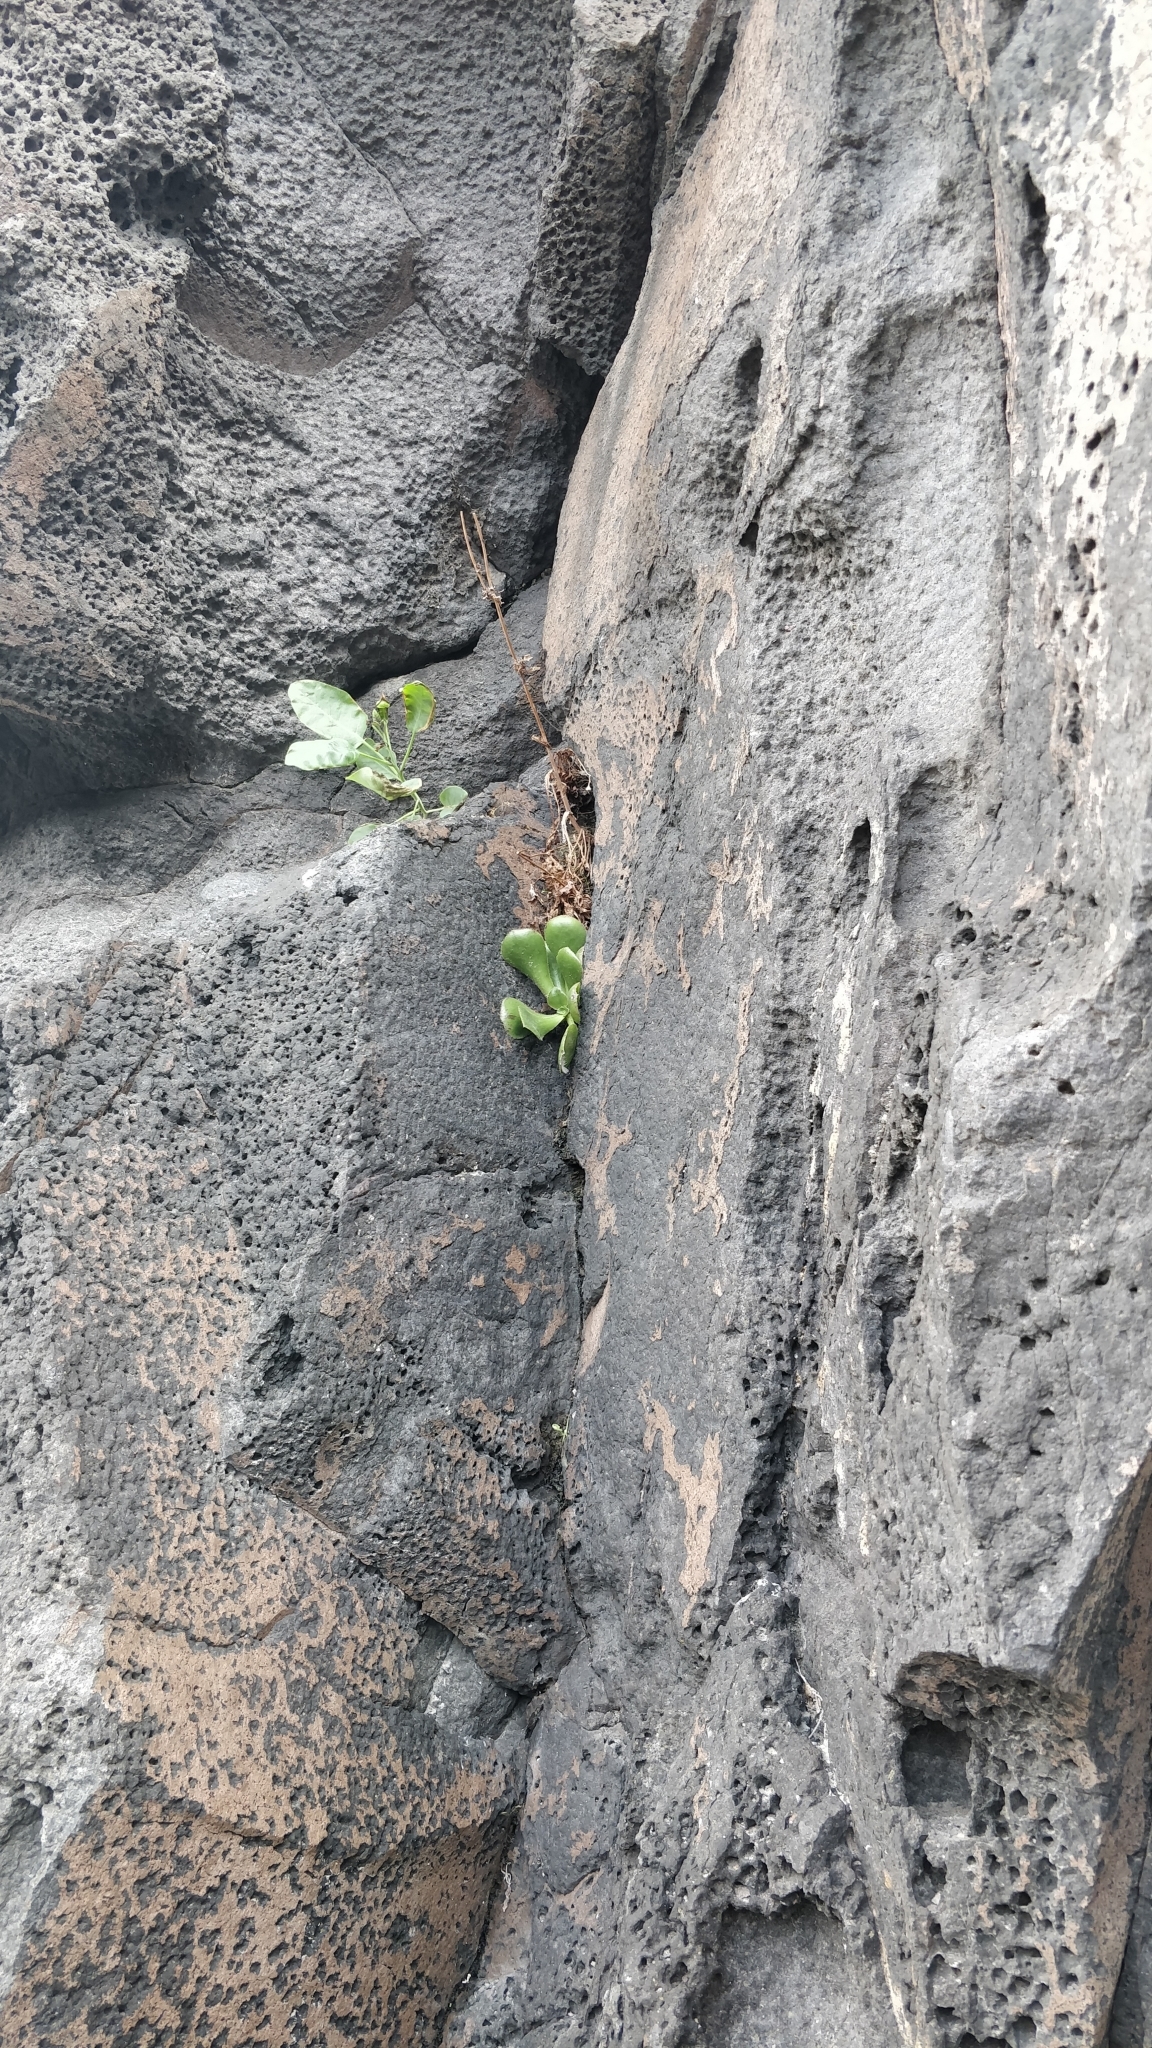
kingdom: Plantae
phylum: Tracheophyta
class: Magnoliopsida
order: Saxifragales
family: Crassulaceae
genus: Aeonium
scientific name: Aeonium glutinosum
